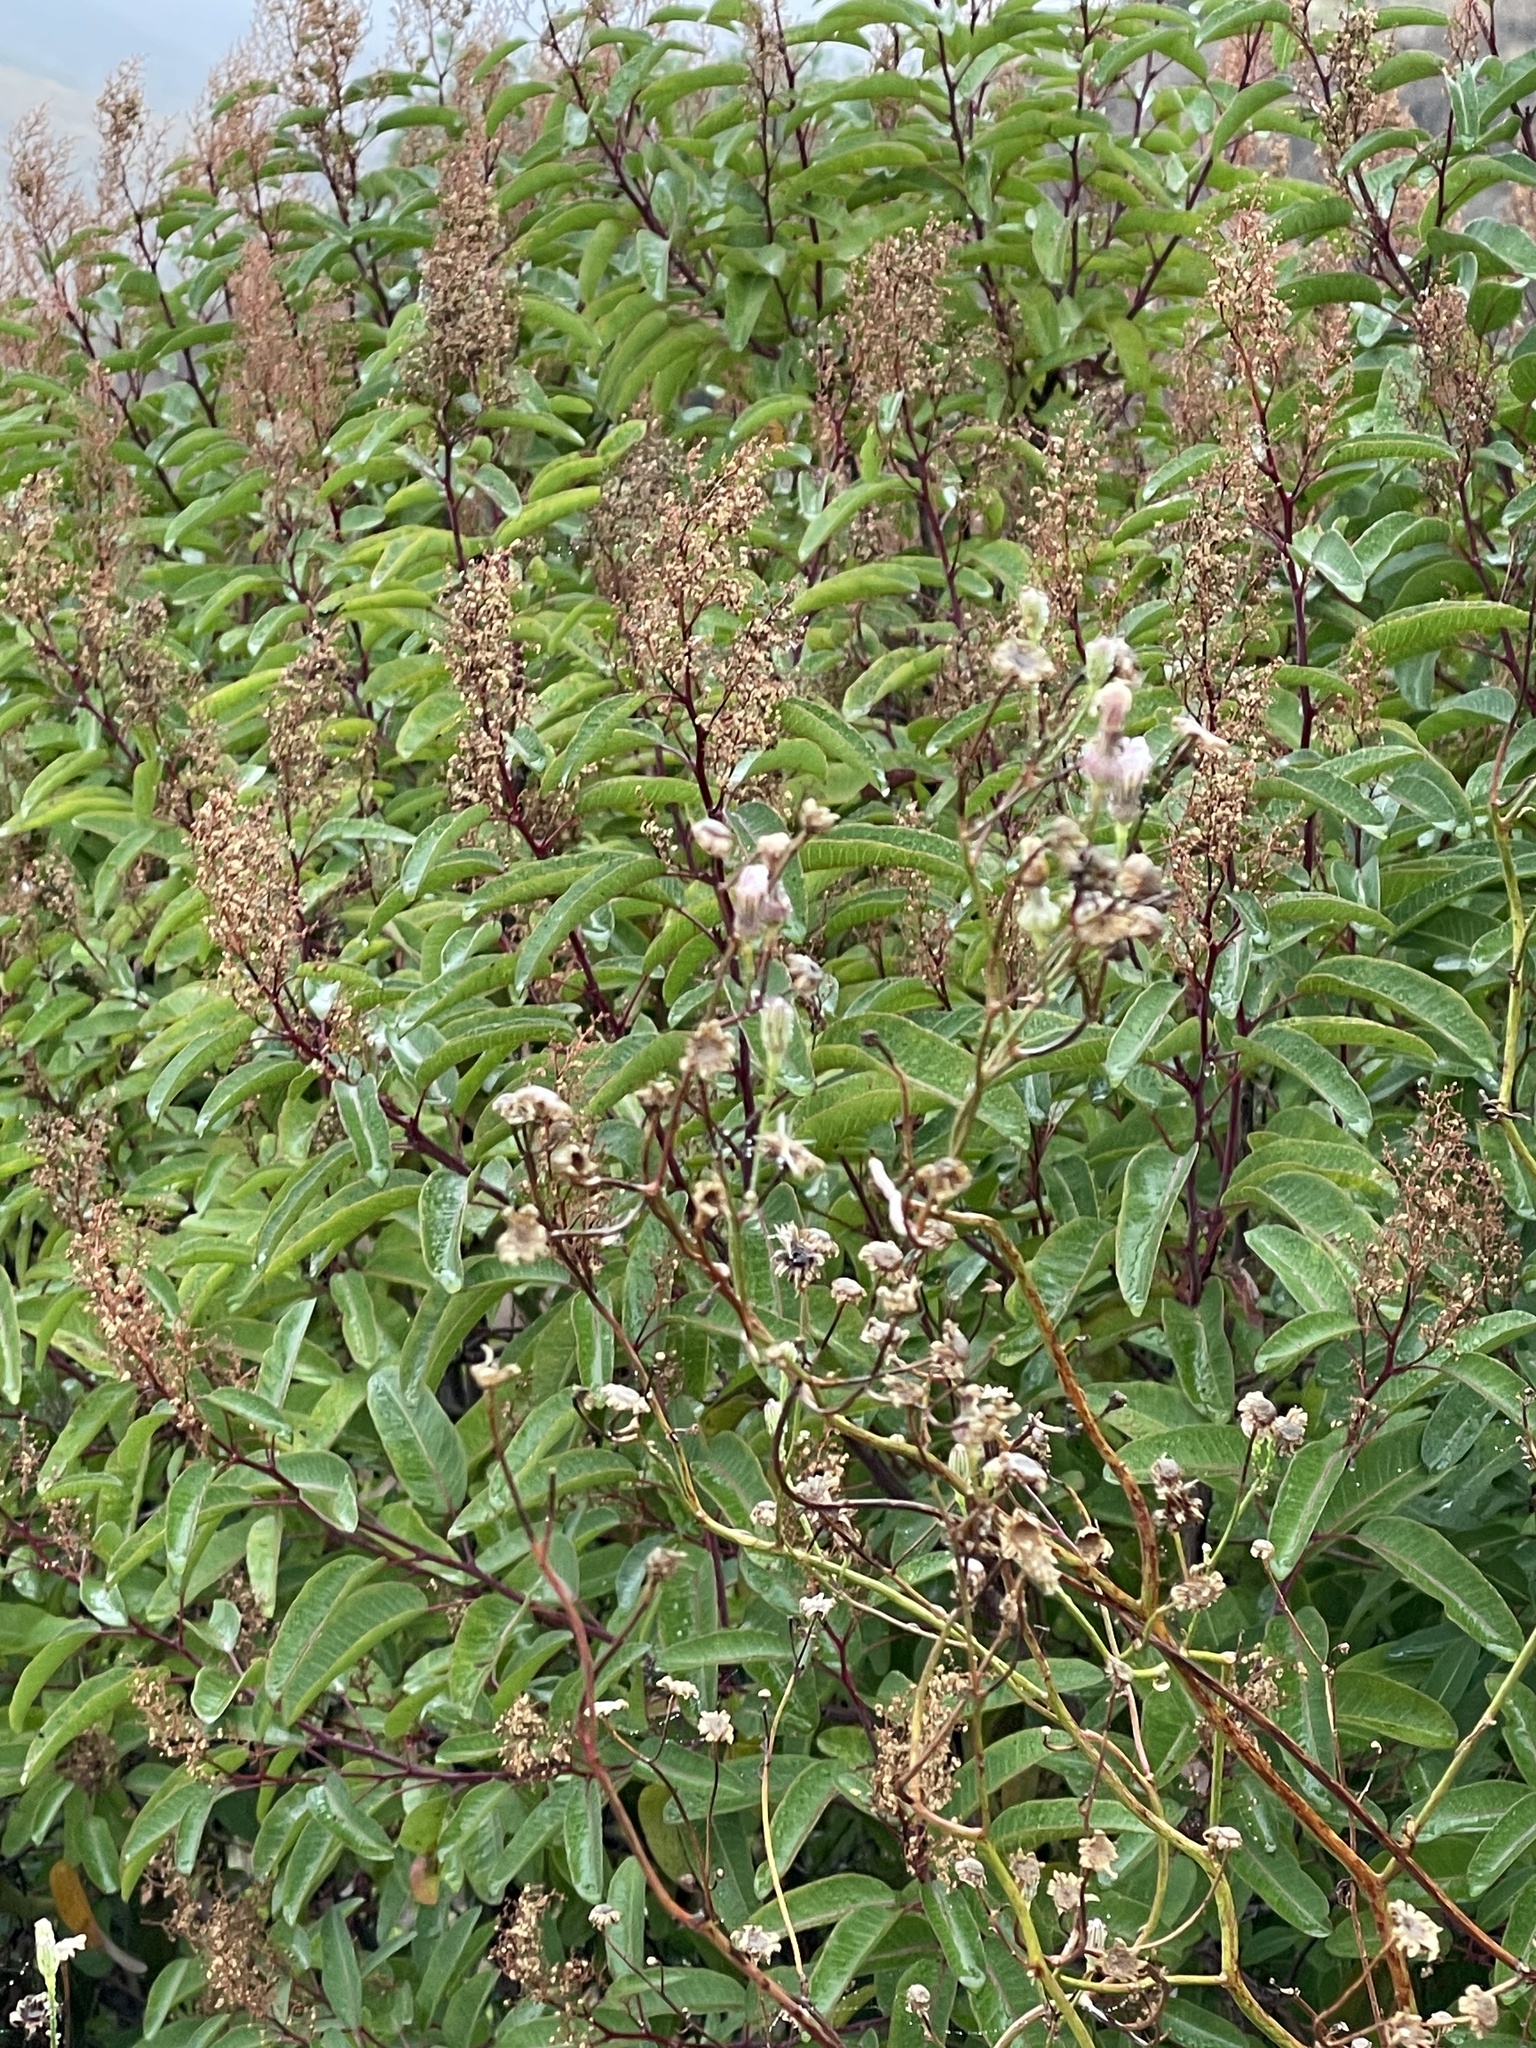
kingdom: Plantae
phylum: Tracheophyta
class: Magnoliopsida
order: Sapindales
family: Anacardiaceae
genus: Malosma
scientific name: Malosma laurina
